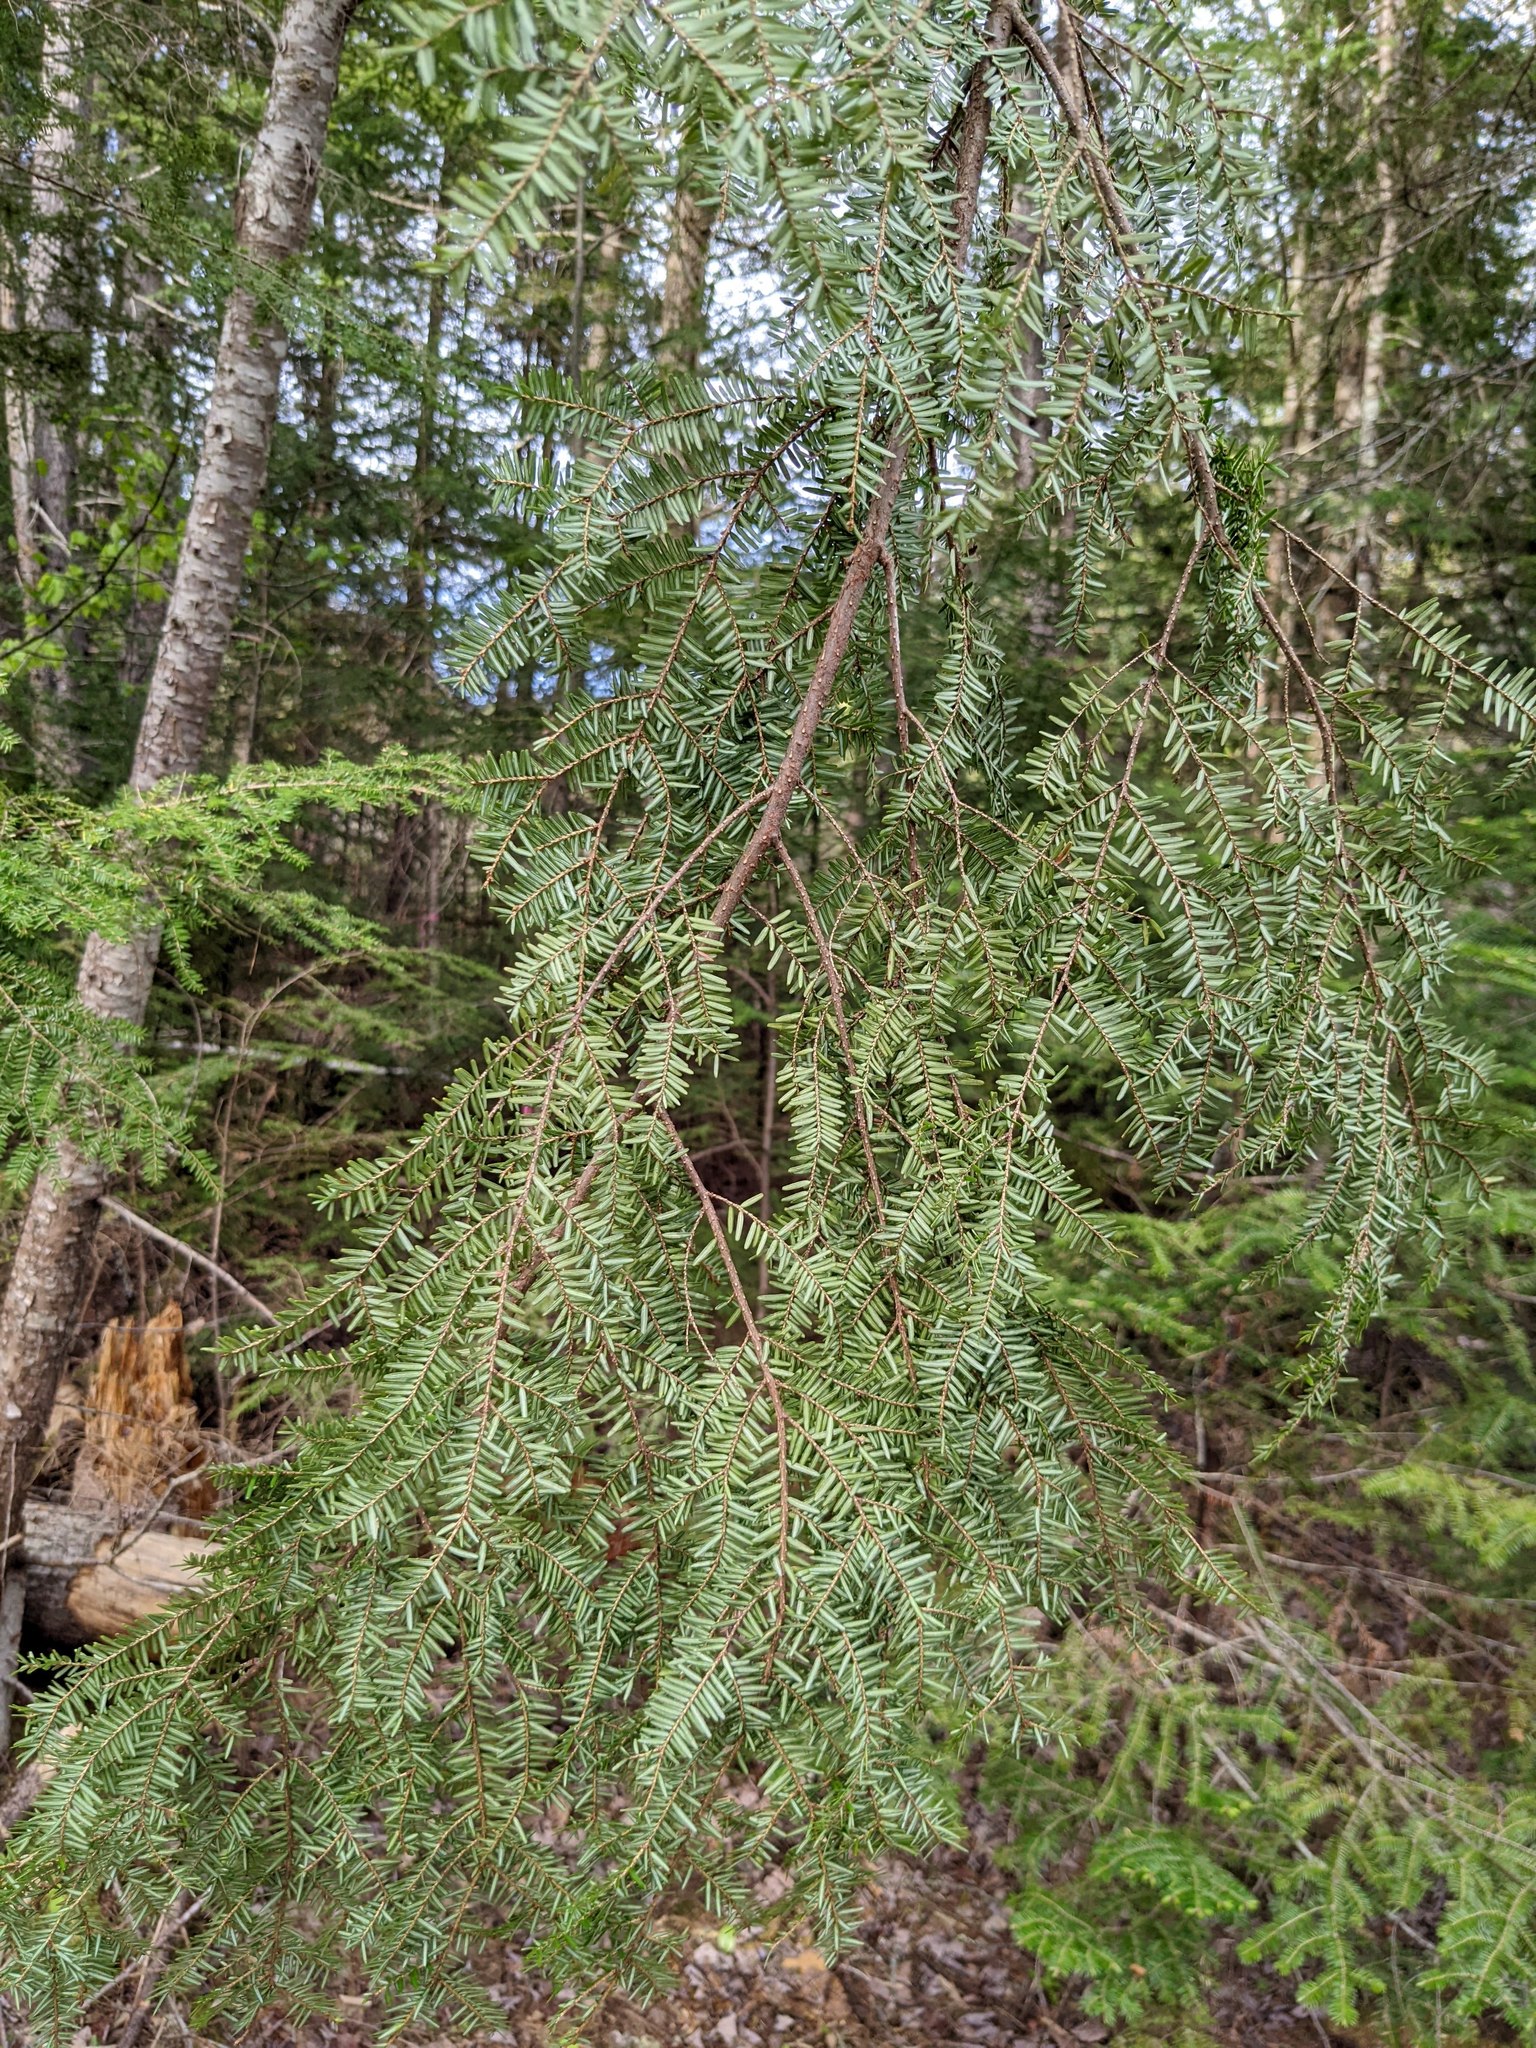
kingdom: Plantae
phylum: Tracheophyta
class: Pinopsida
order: Pinales
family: Pinaceae
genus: Tsuga
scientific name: Tsuga canadensis
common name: Eastern hemlock
